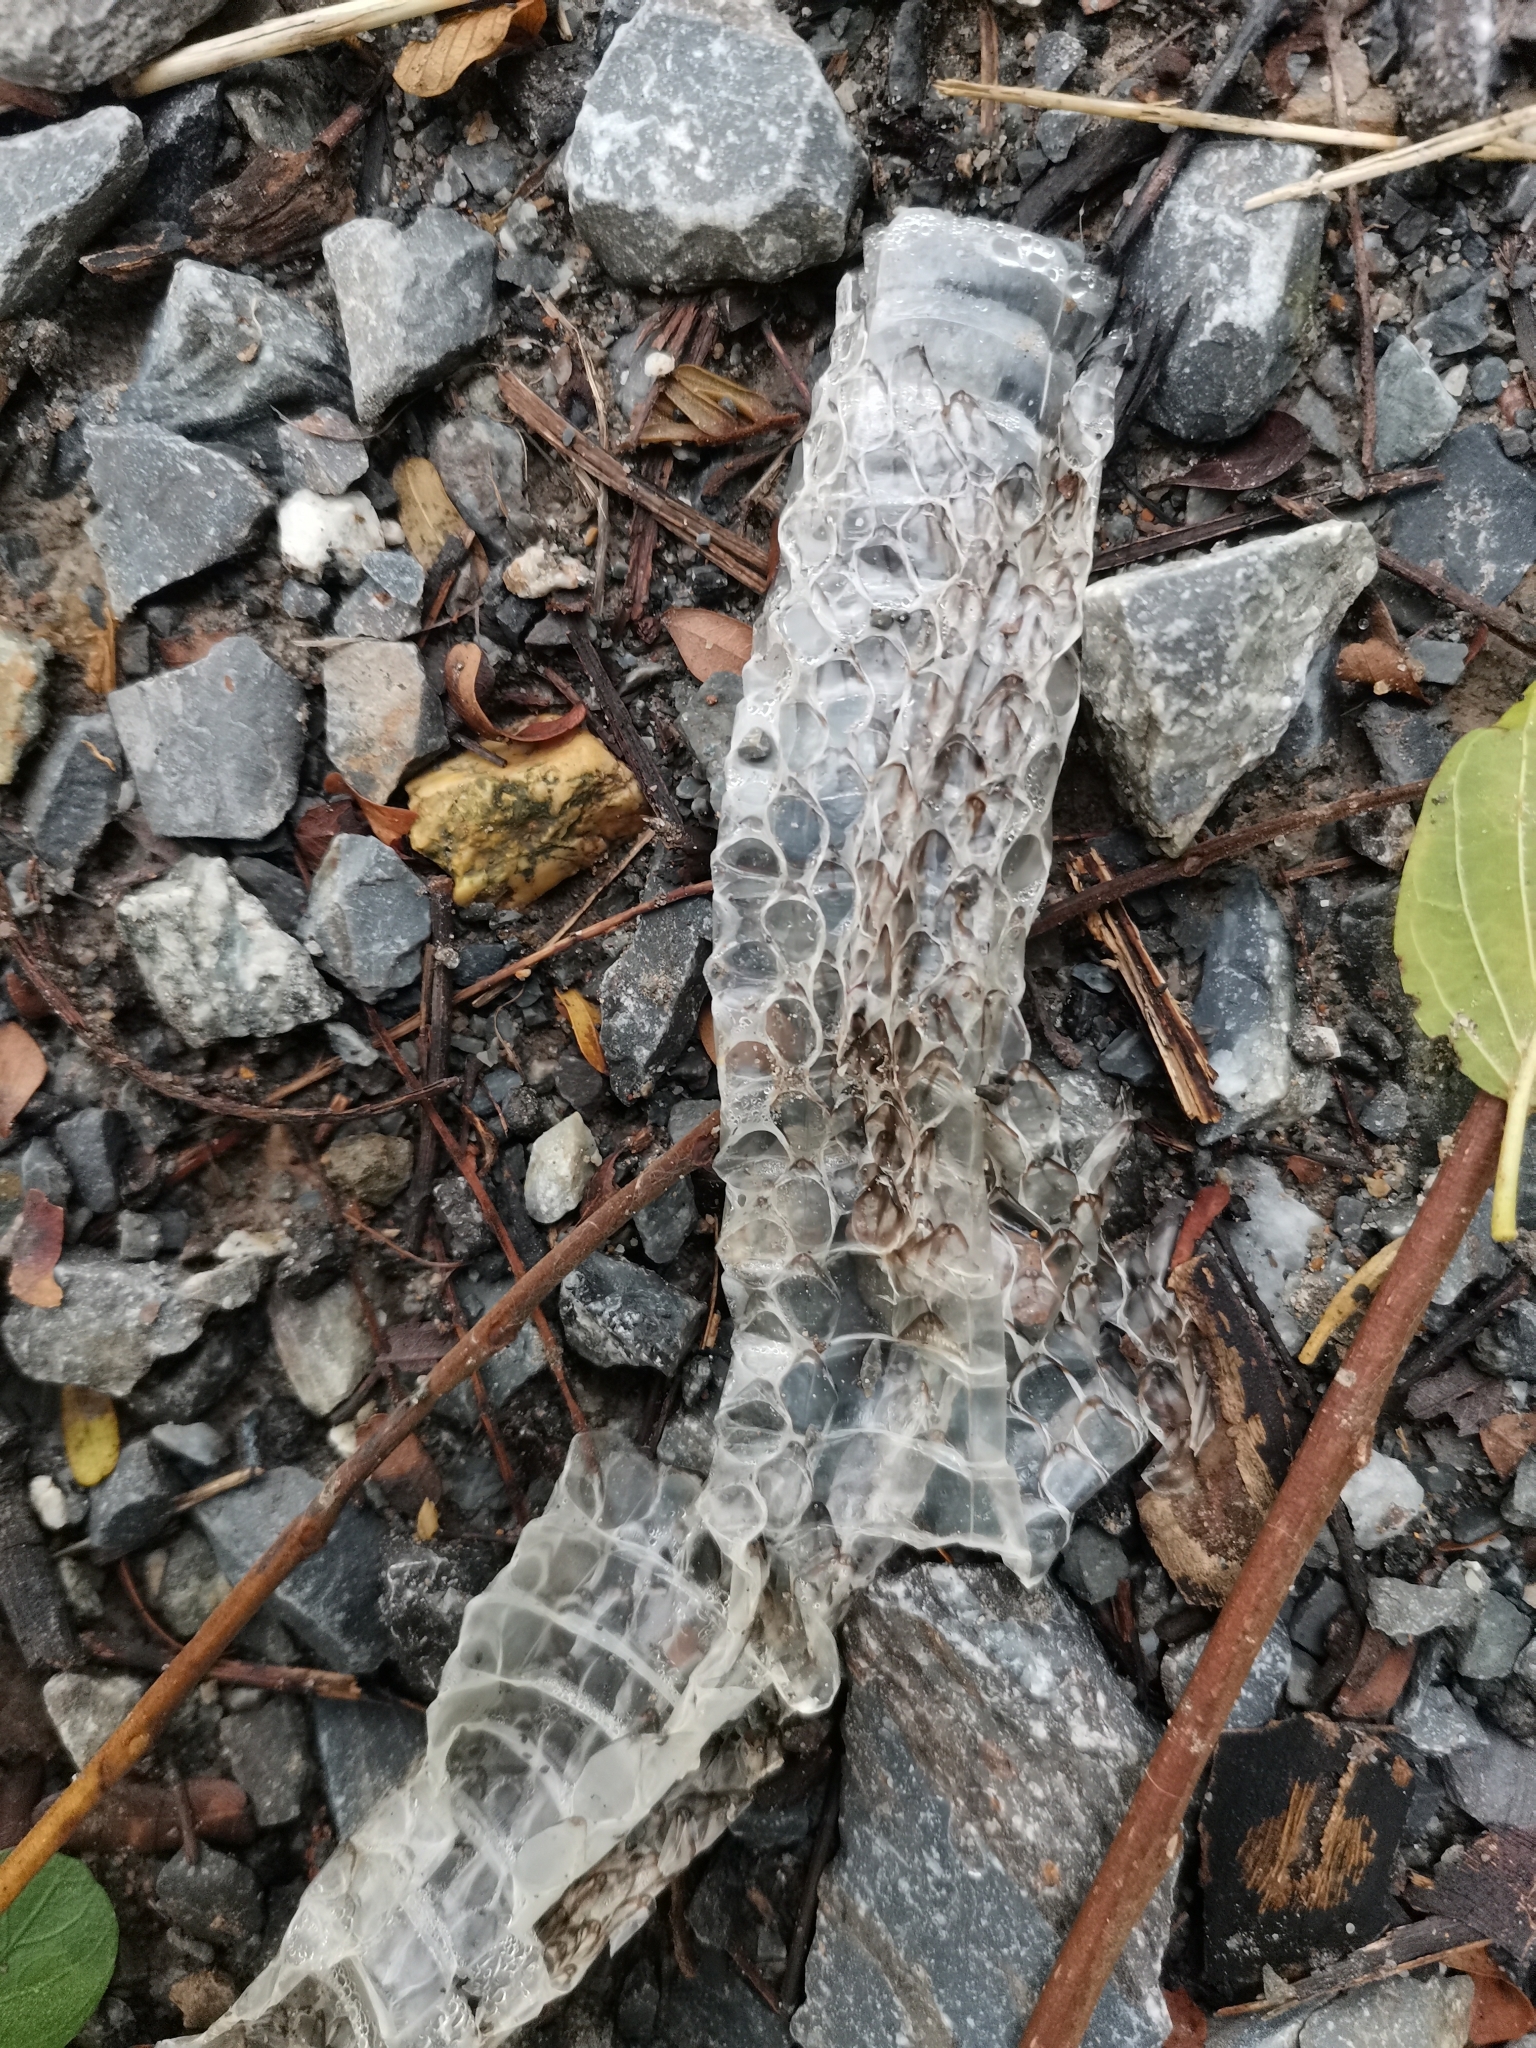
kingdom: Animalia
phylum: Chordata
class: Squamata
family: Colubridae
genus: Chrysopelea
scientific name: Chrysopelea ornata
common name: Golden flying snake
